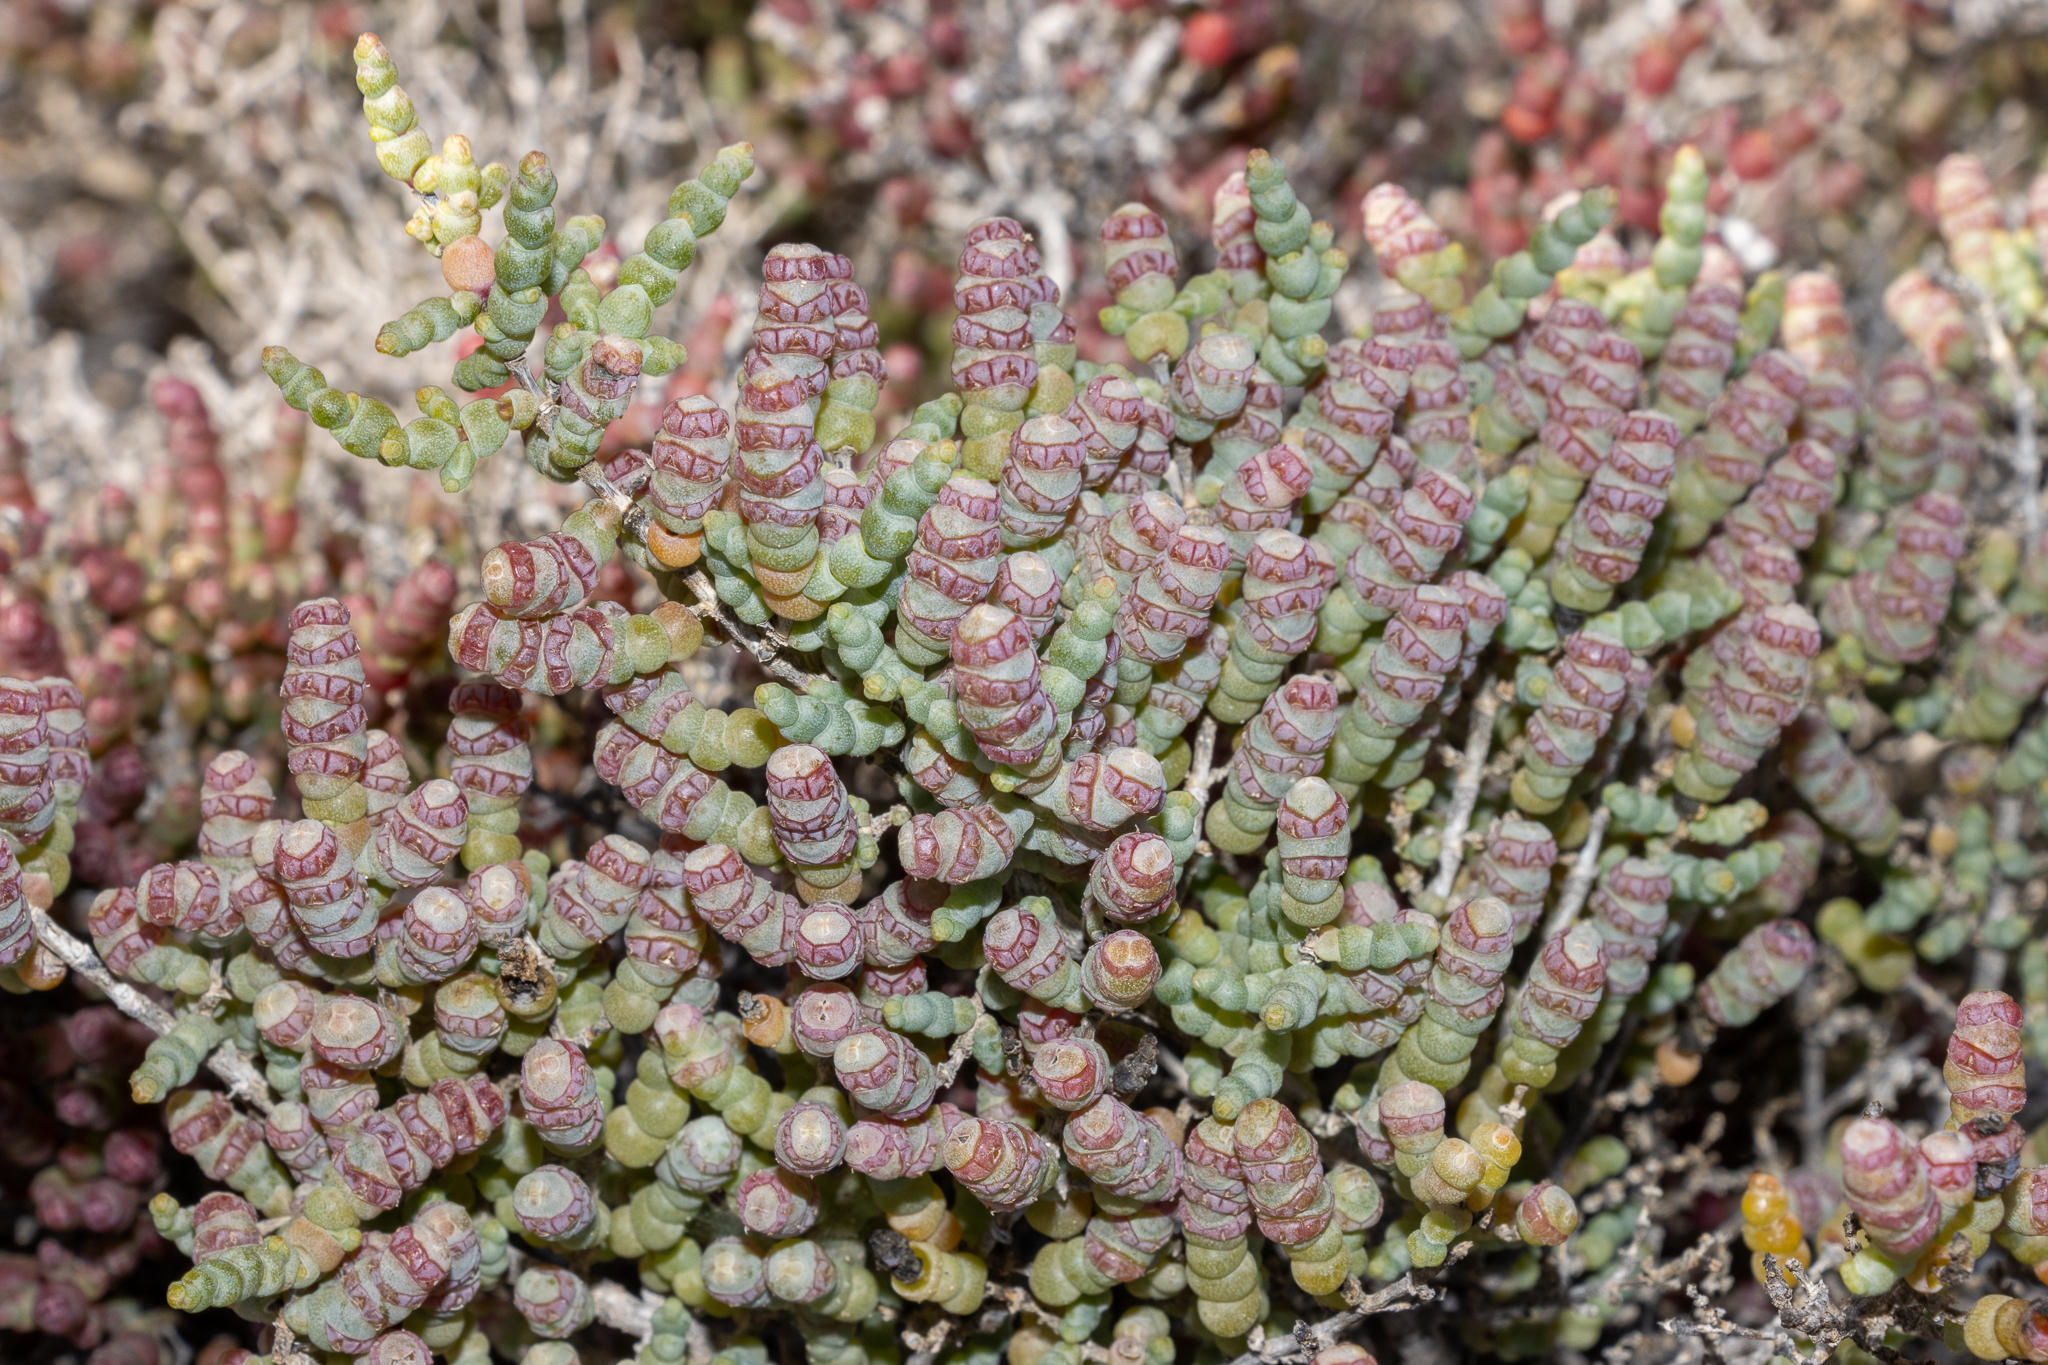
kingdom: Plantae
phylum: Tracheophyta
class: Magnoliopsida
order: Caryophyllales
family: Amaranthaceae
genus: Tecticornia
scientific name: Tecticornia pterygosperma
